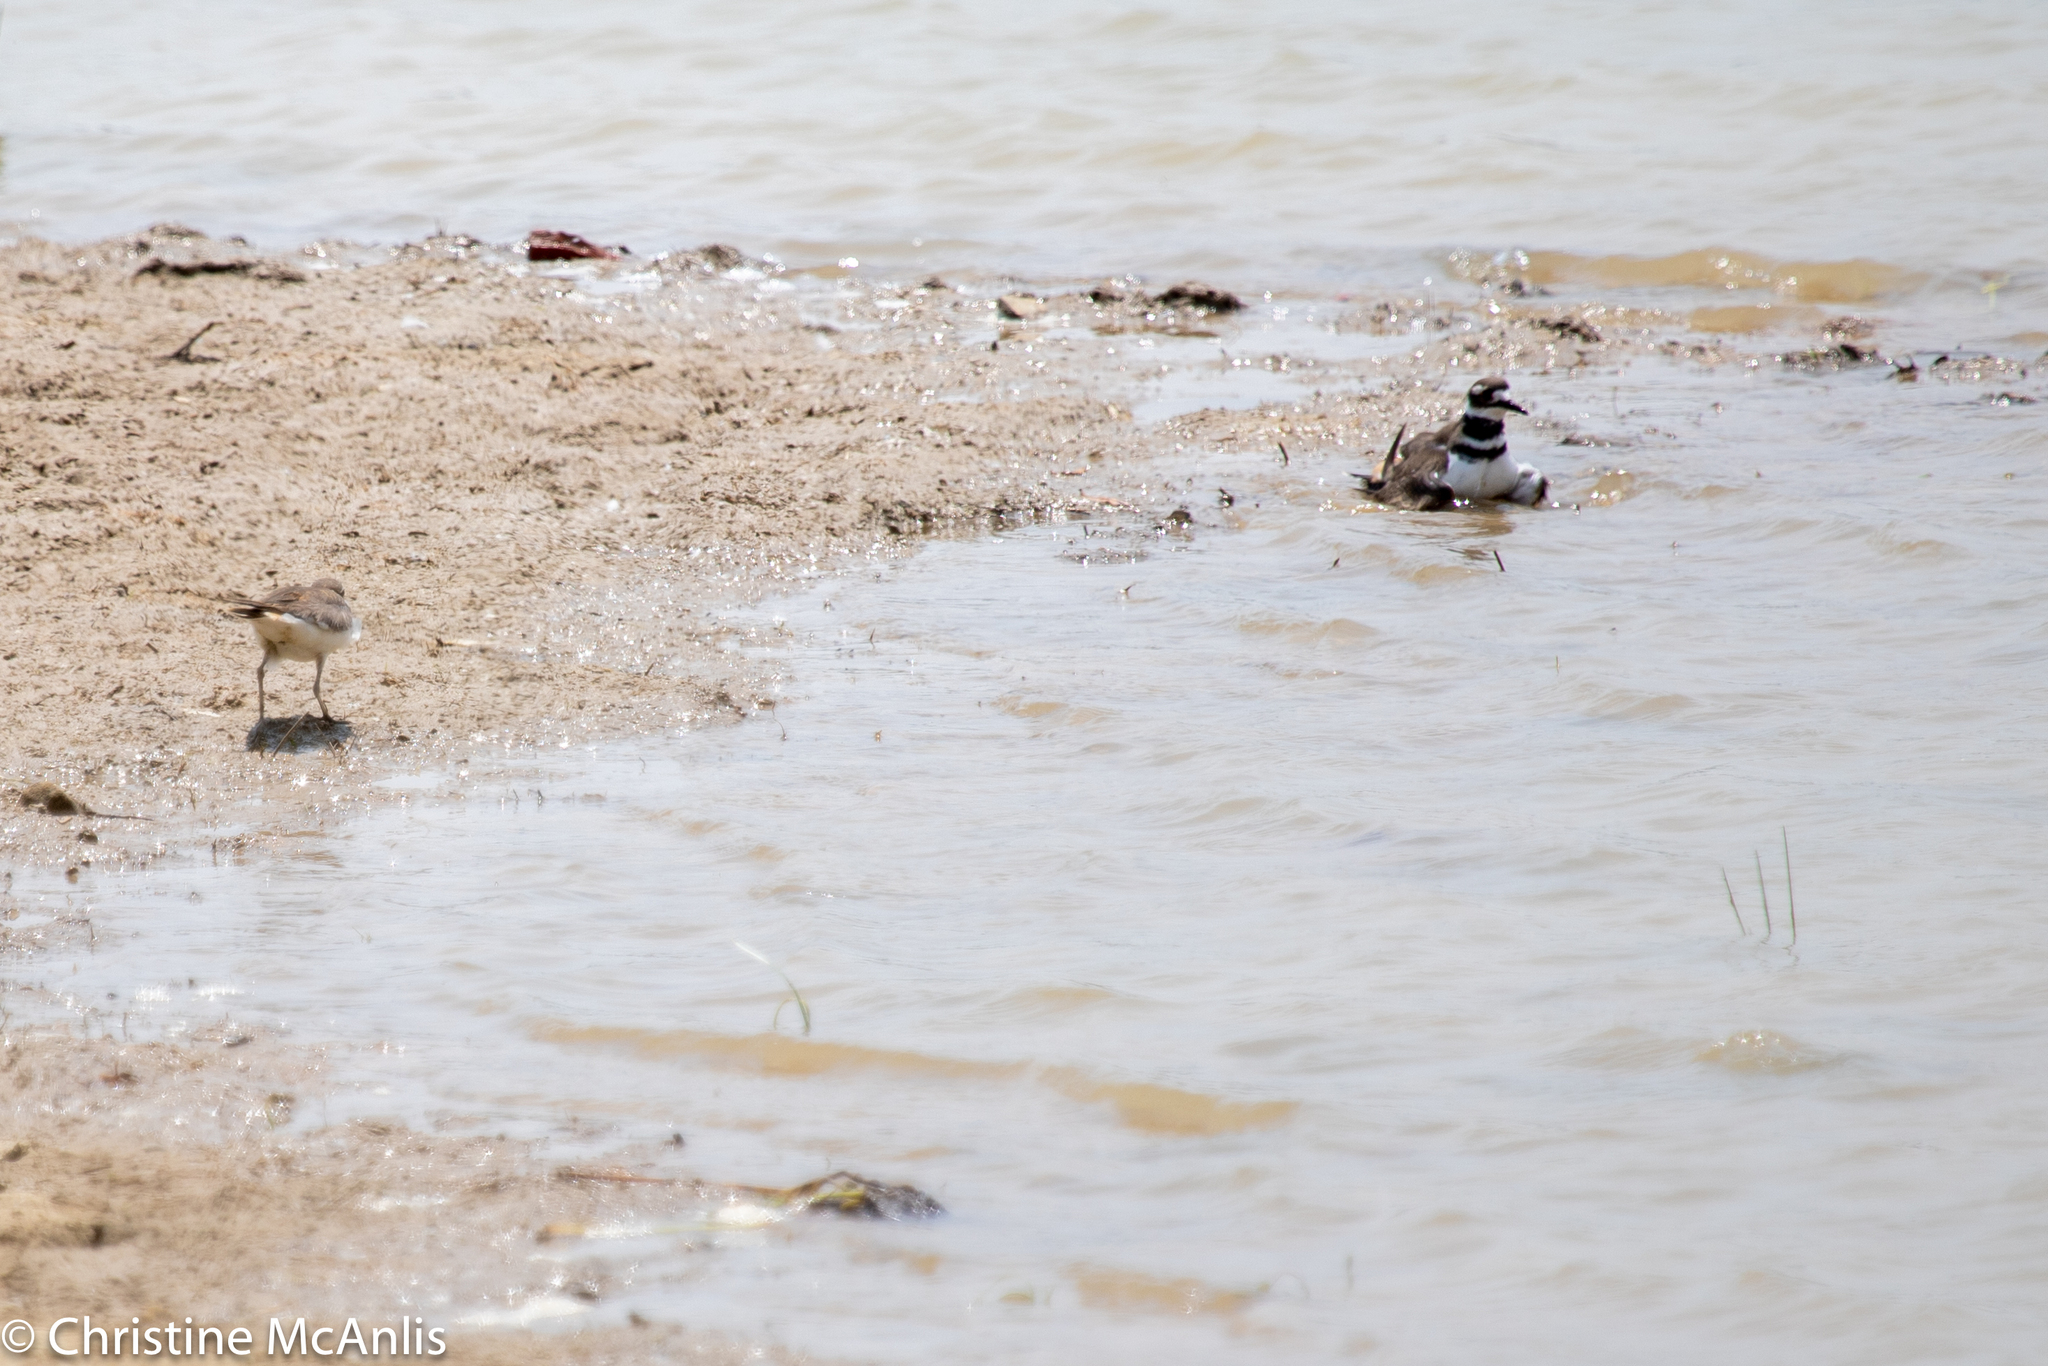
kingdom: Animalia
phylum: Chordata
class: Aves
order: Charadriiformes
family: Charadriidae
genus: Charadrius
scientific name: Charadrius vociferus
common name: Killdeer
